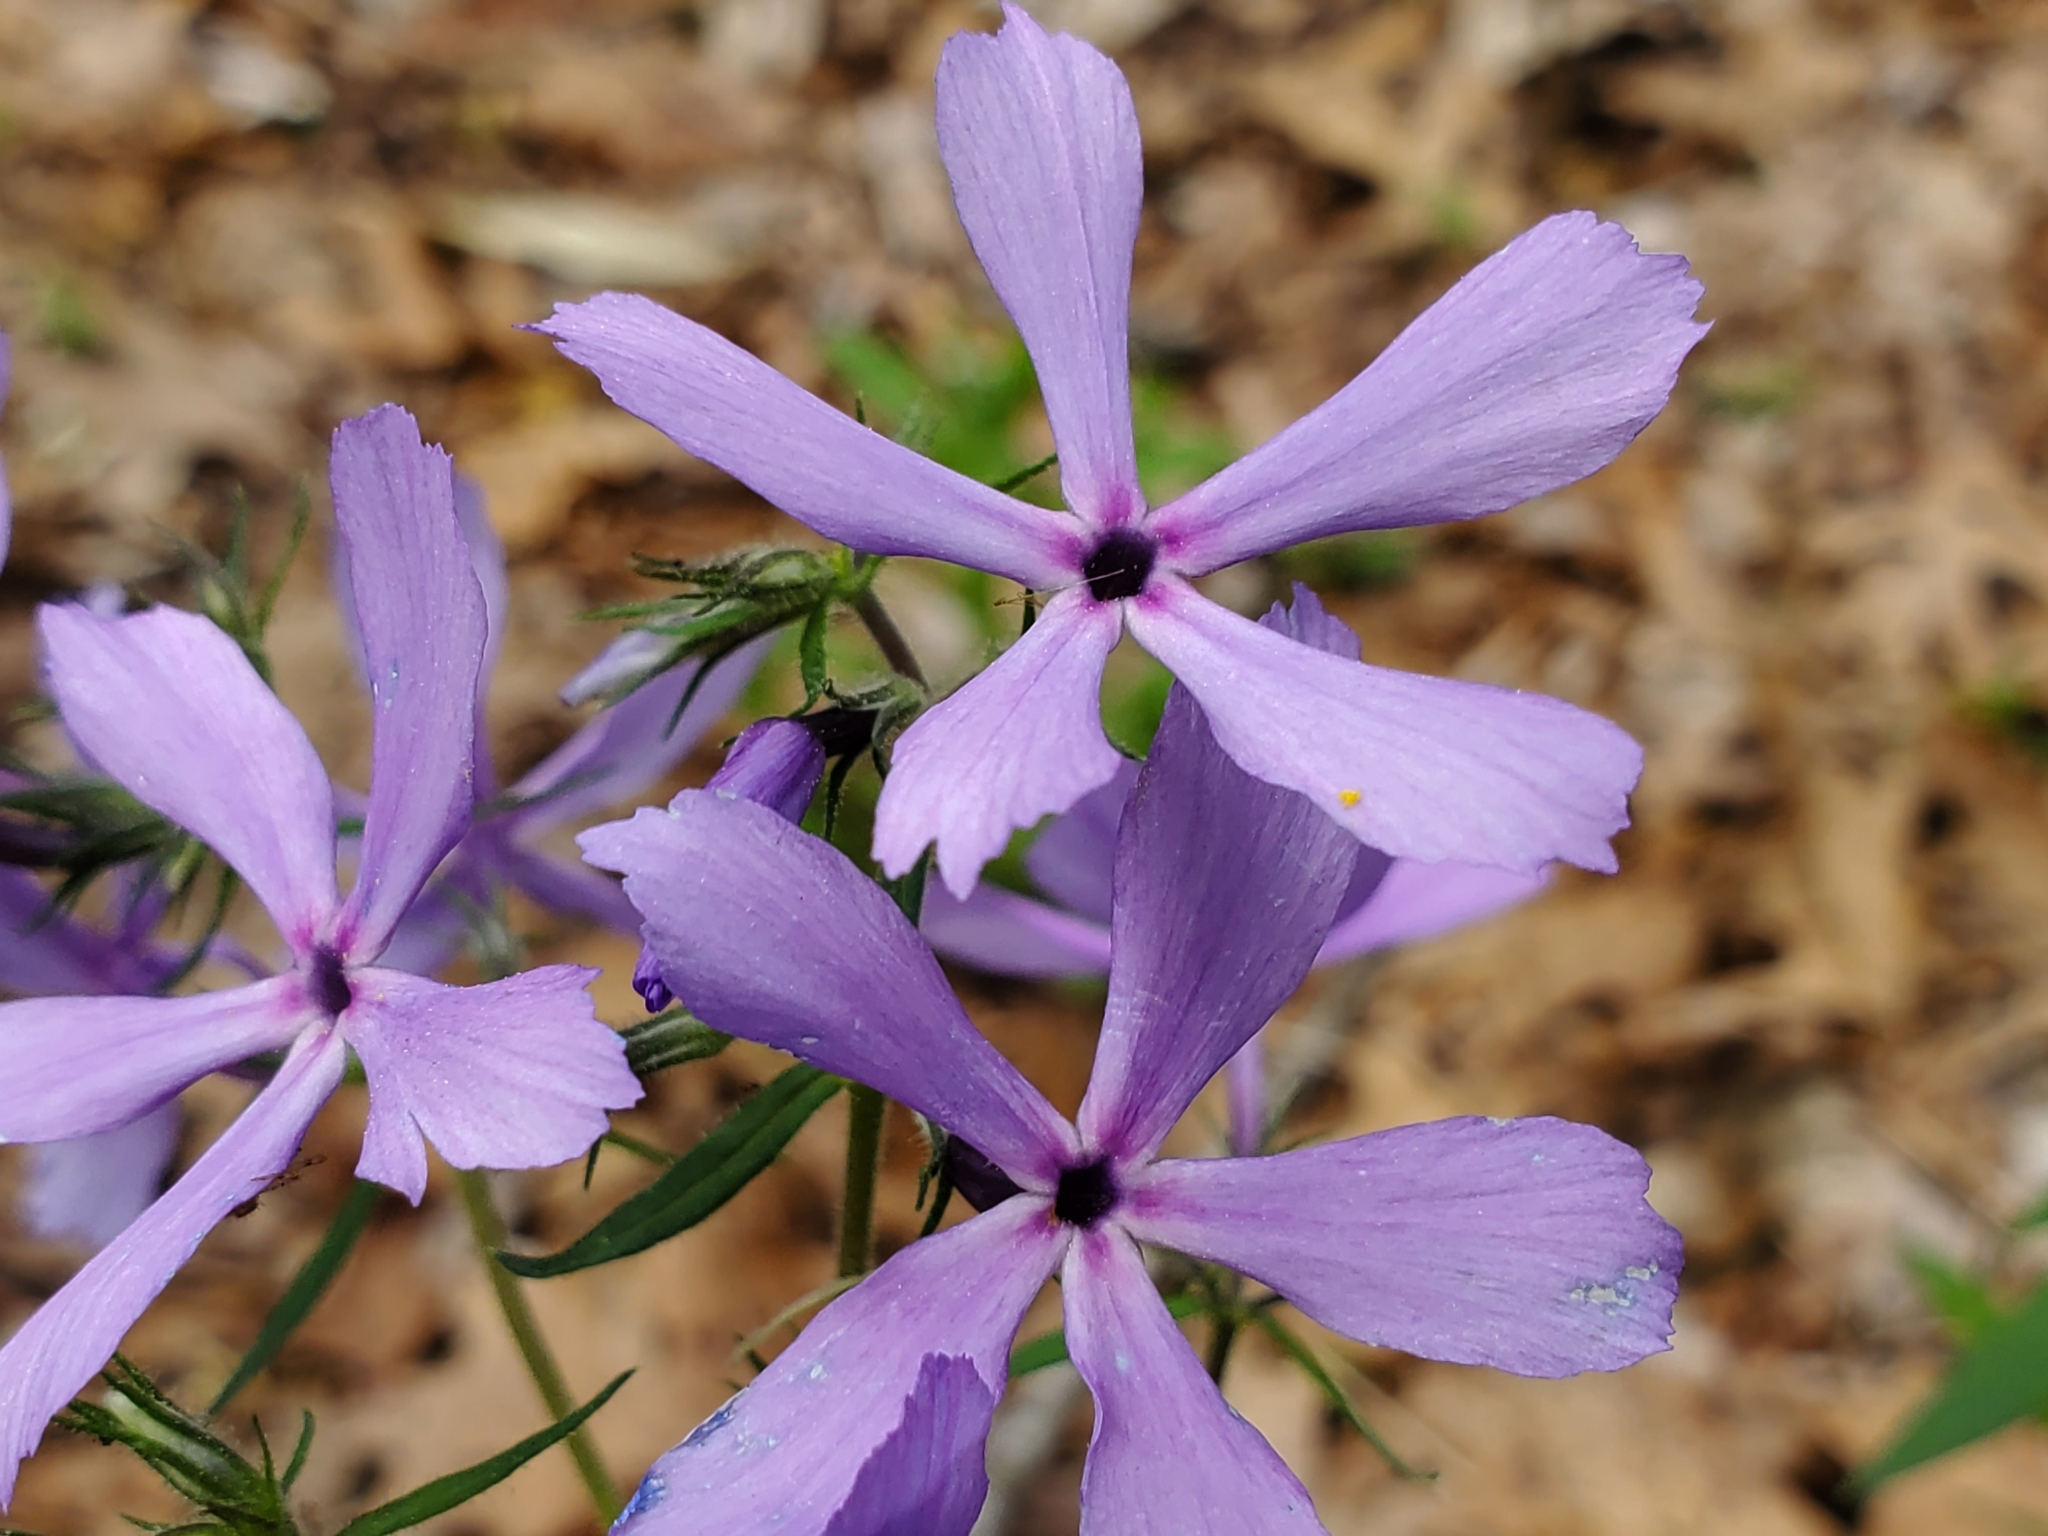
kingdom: Plantae
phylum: Tracheophyta
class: Magnoliopsida
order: Ericales
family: Polemoniaceae
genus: Phlox
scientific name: Phlox divaricata
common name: Blue phlox
